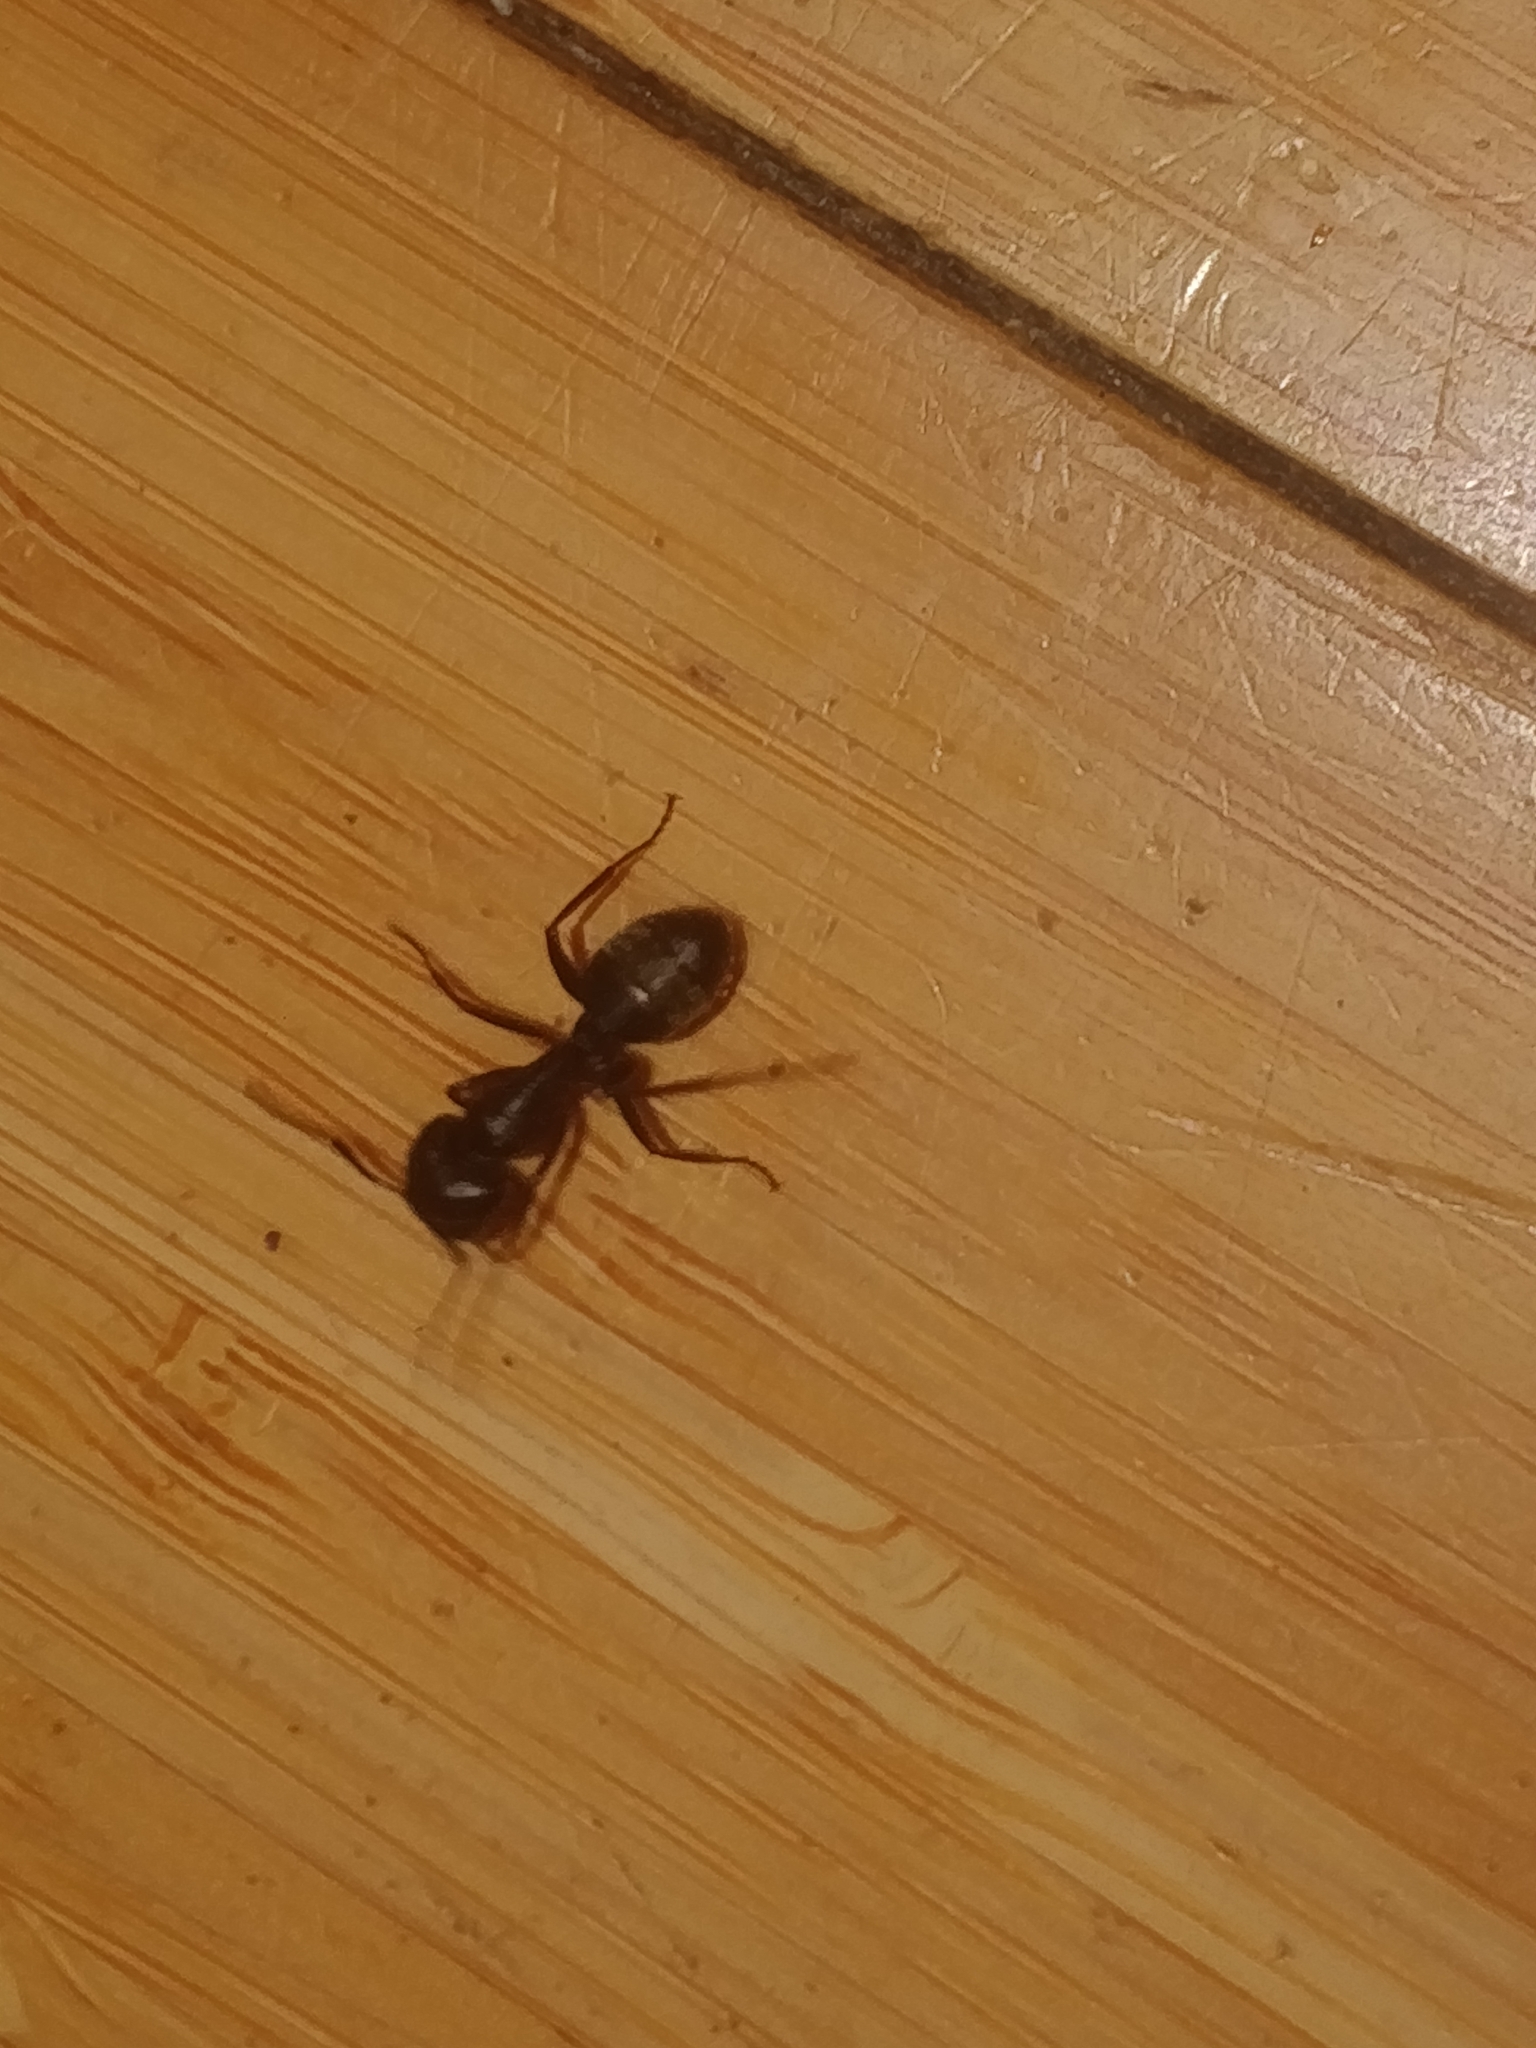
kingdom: Animalia
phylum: Arthropoda
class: Insecta
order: Hymenoptera
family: Formicidae
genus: Camponotus
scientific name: Camponotus pennsylvanicus
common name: Black carpenter ant
